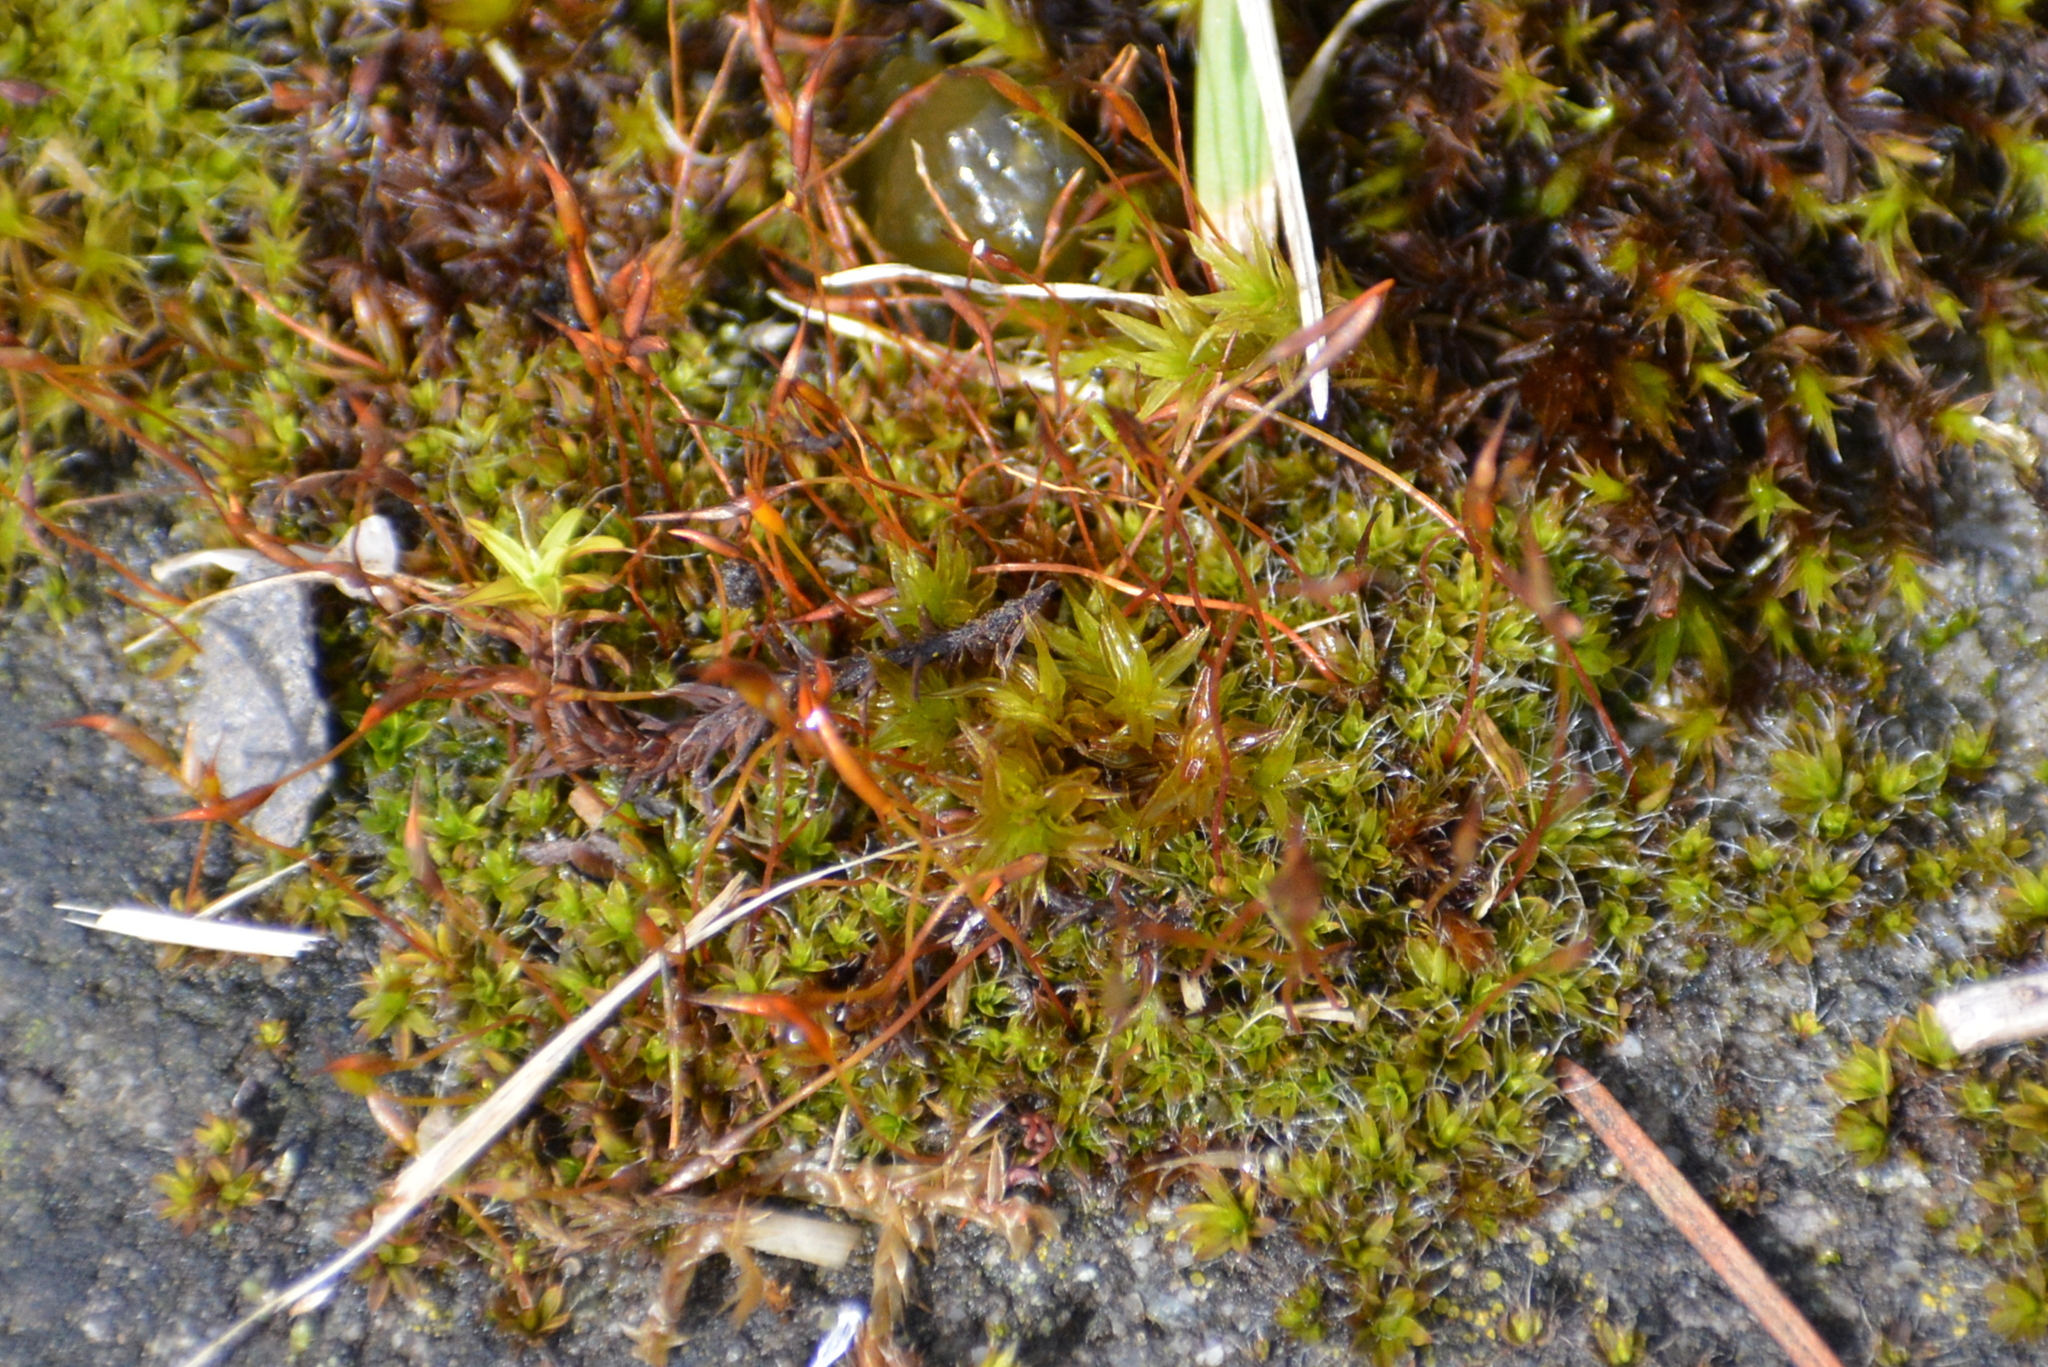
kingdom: Plantae
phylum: Bryophyta
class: Bryopsida
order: Pottiales
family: Pottiaceae
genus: Tortula
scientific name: Tortula muralis
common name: Wall screw-moss
